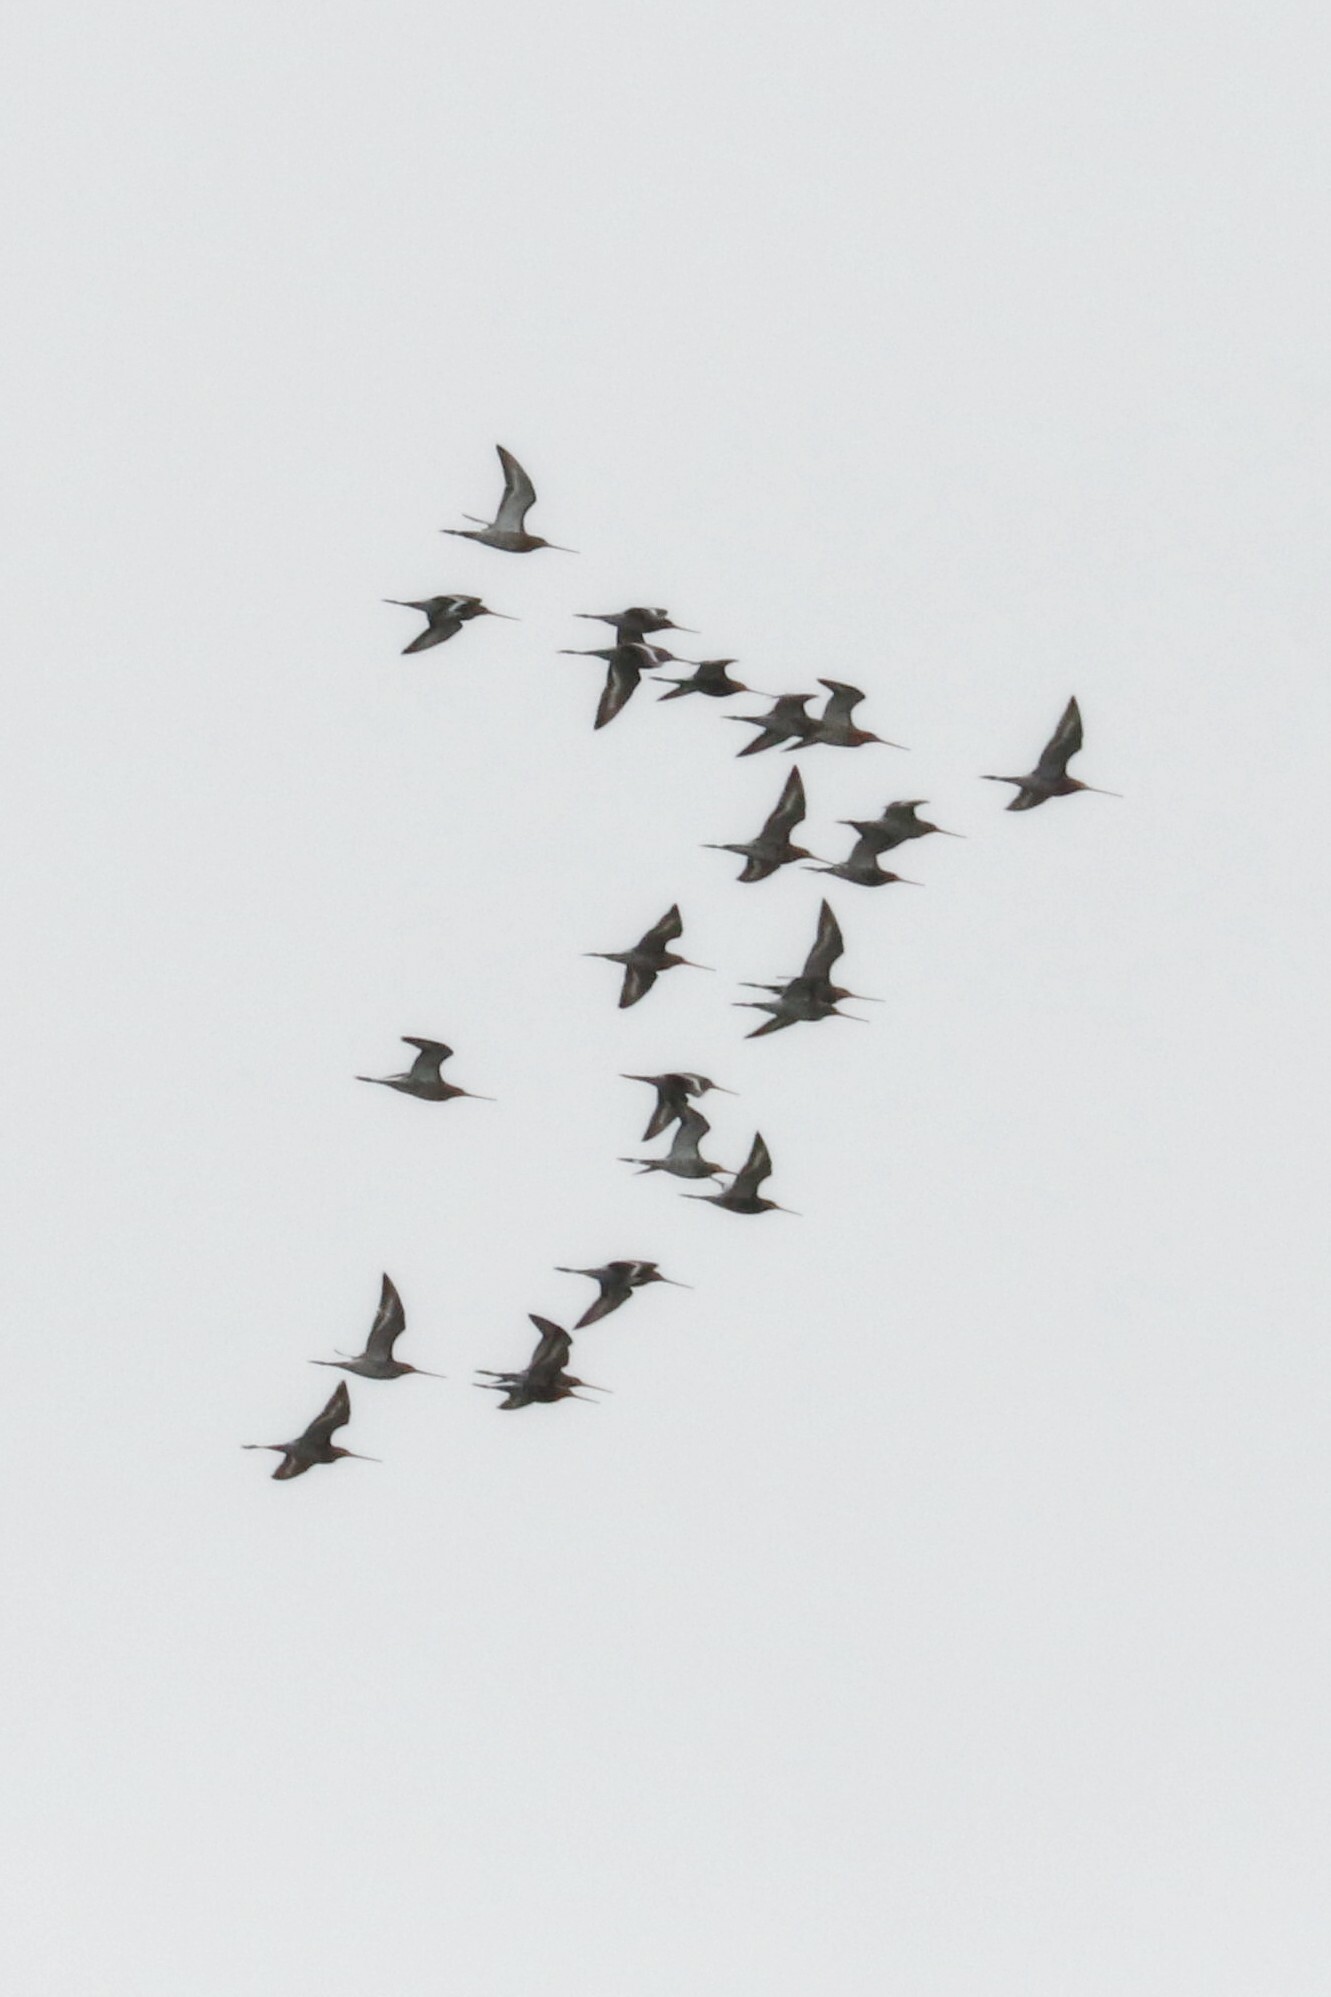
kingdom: Animalia
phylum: Chordata
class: Aves
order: Charadriiformes
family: Scolopacidae
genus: Limosa
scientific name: Limosa limosa
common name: Black-tailed godwit
